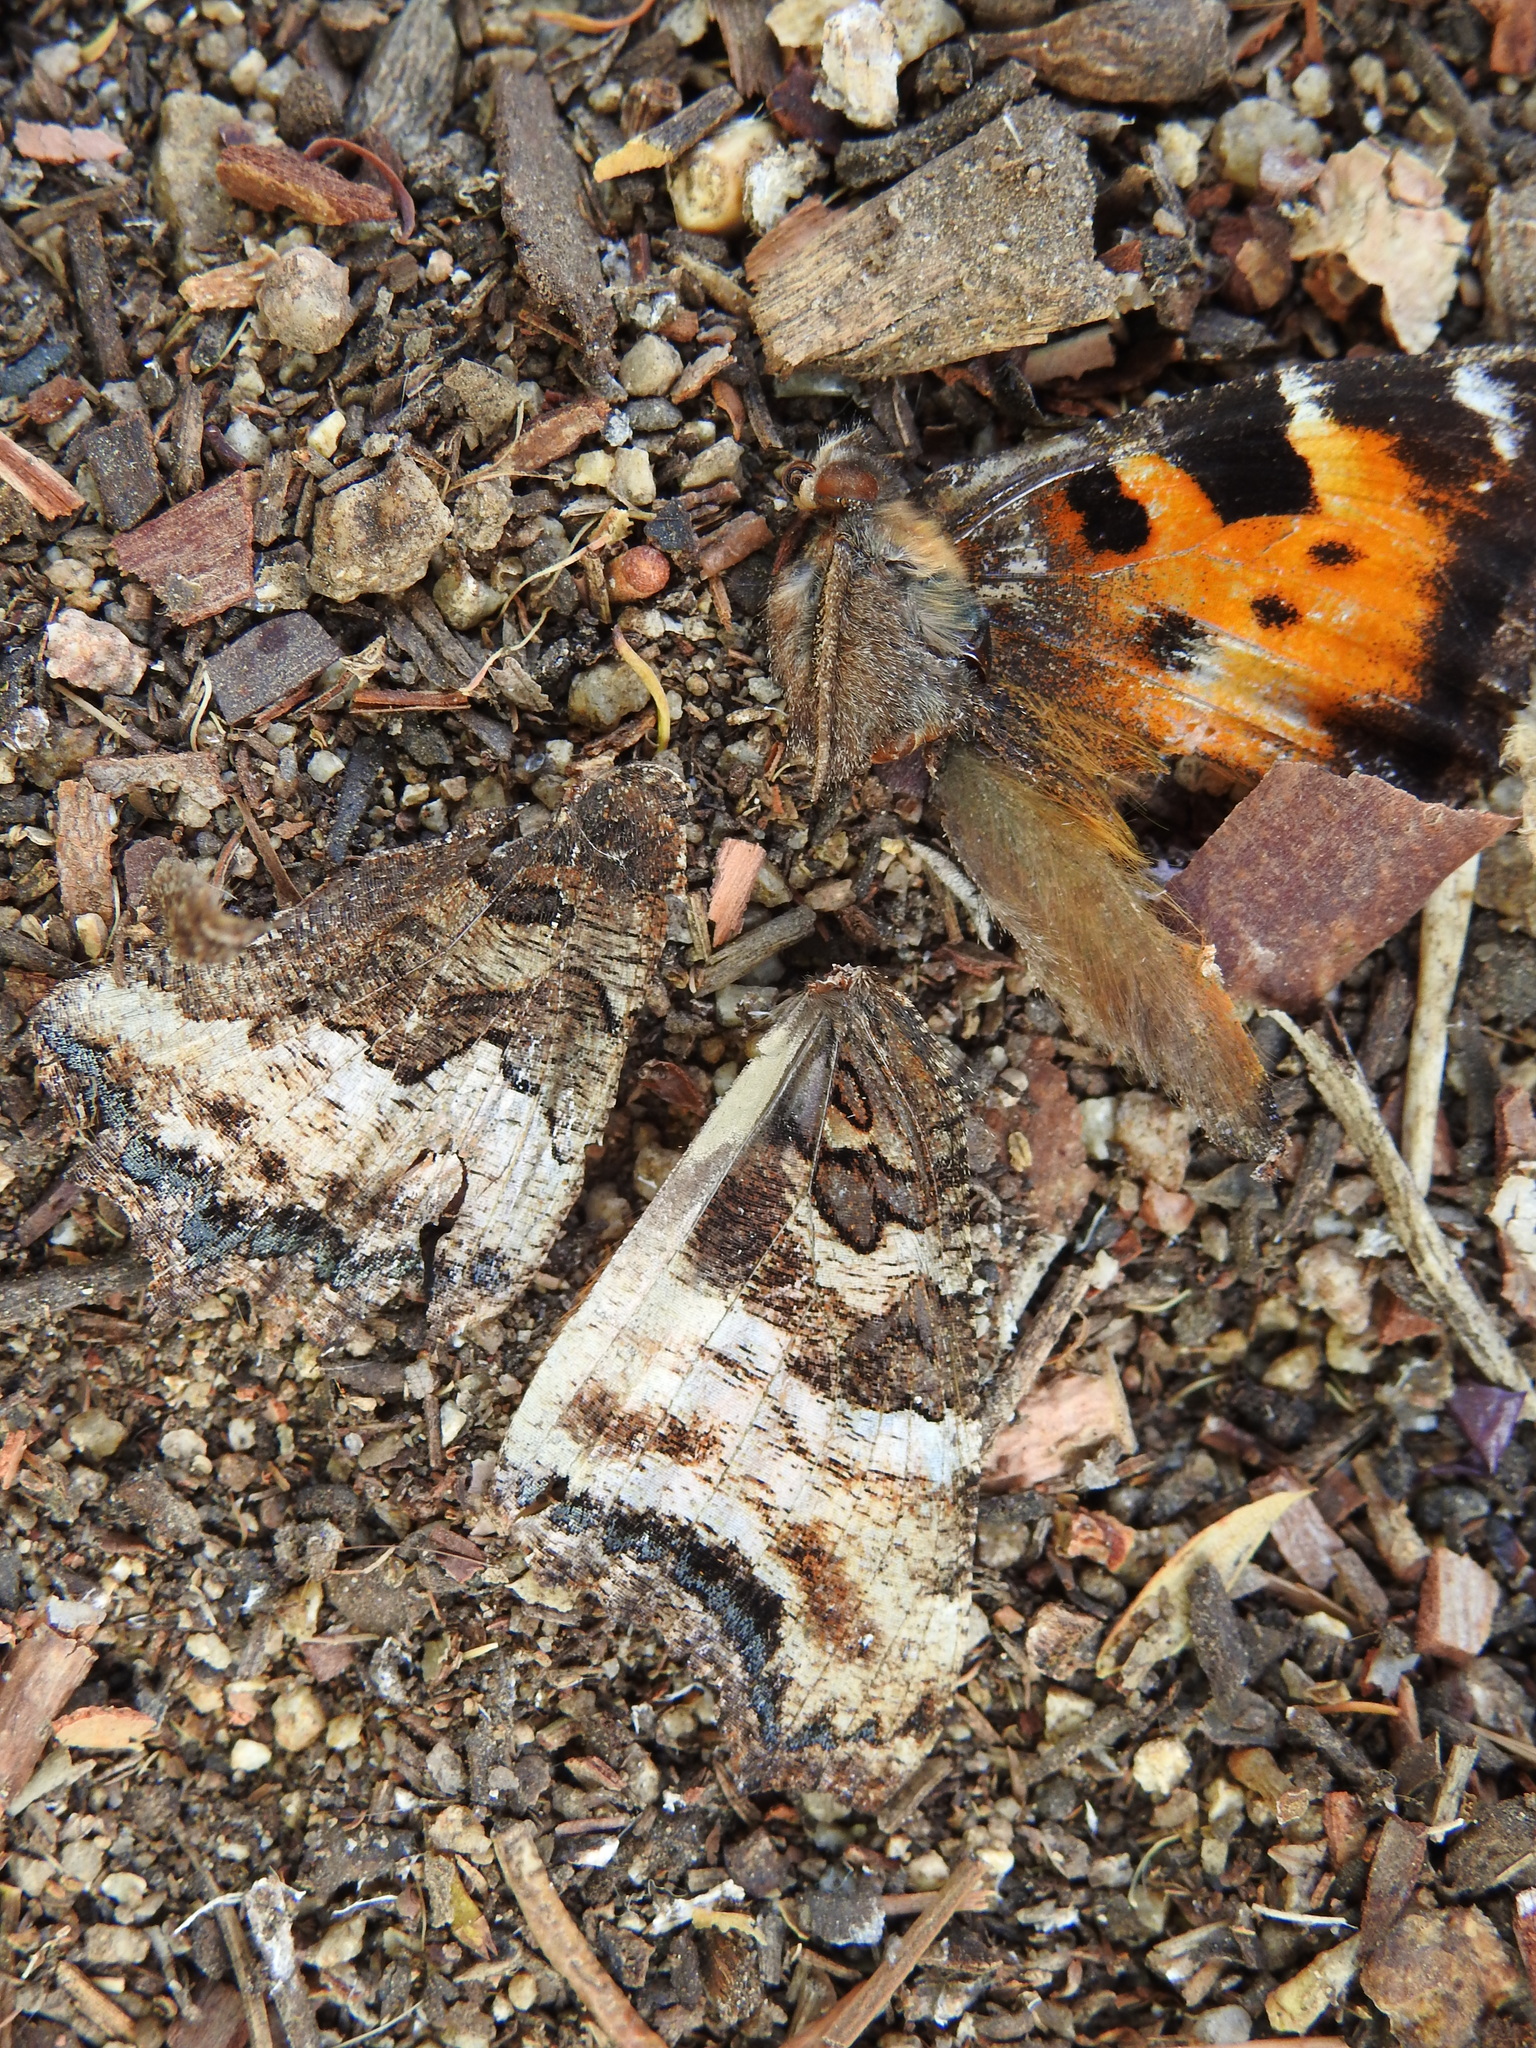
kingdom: Animalia
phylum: Arthropoda
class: Insecta
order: Lepidoptera
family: Nymphalidae
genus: Nymphalis
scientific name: Nymphalis californica
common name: California tortoiseshell
